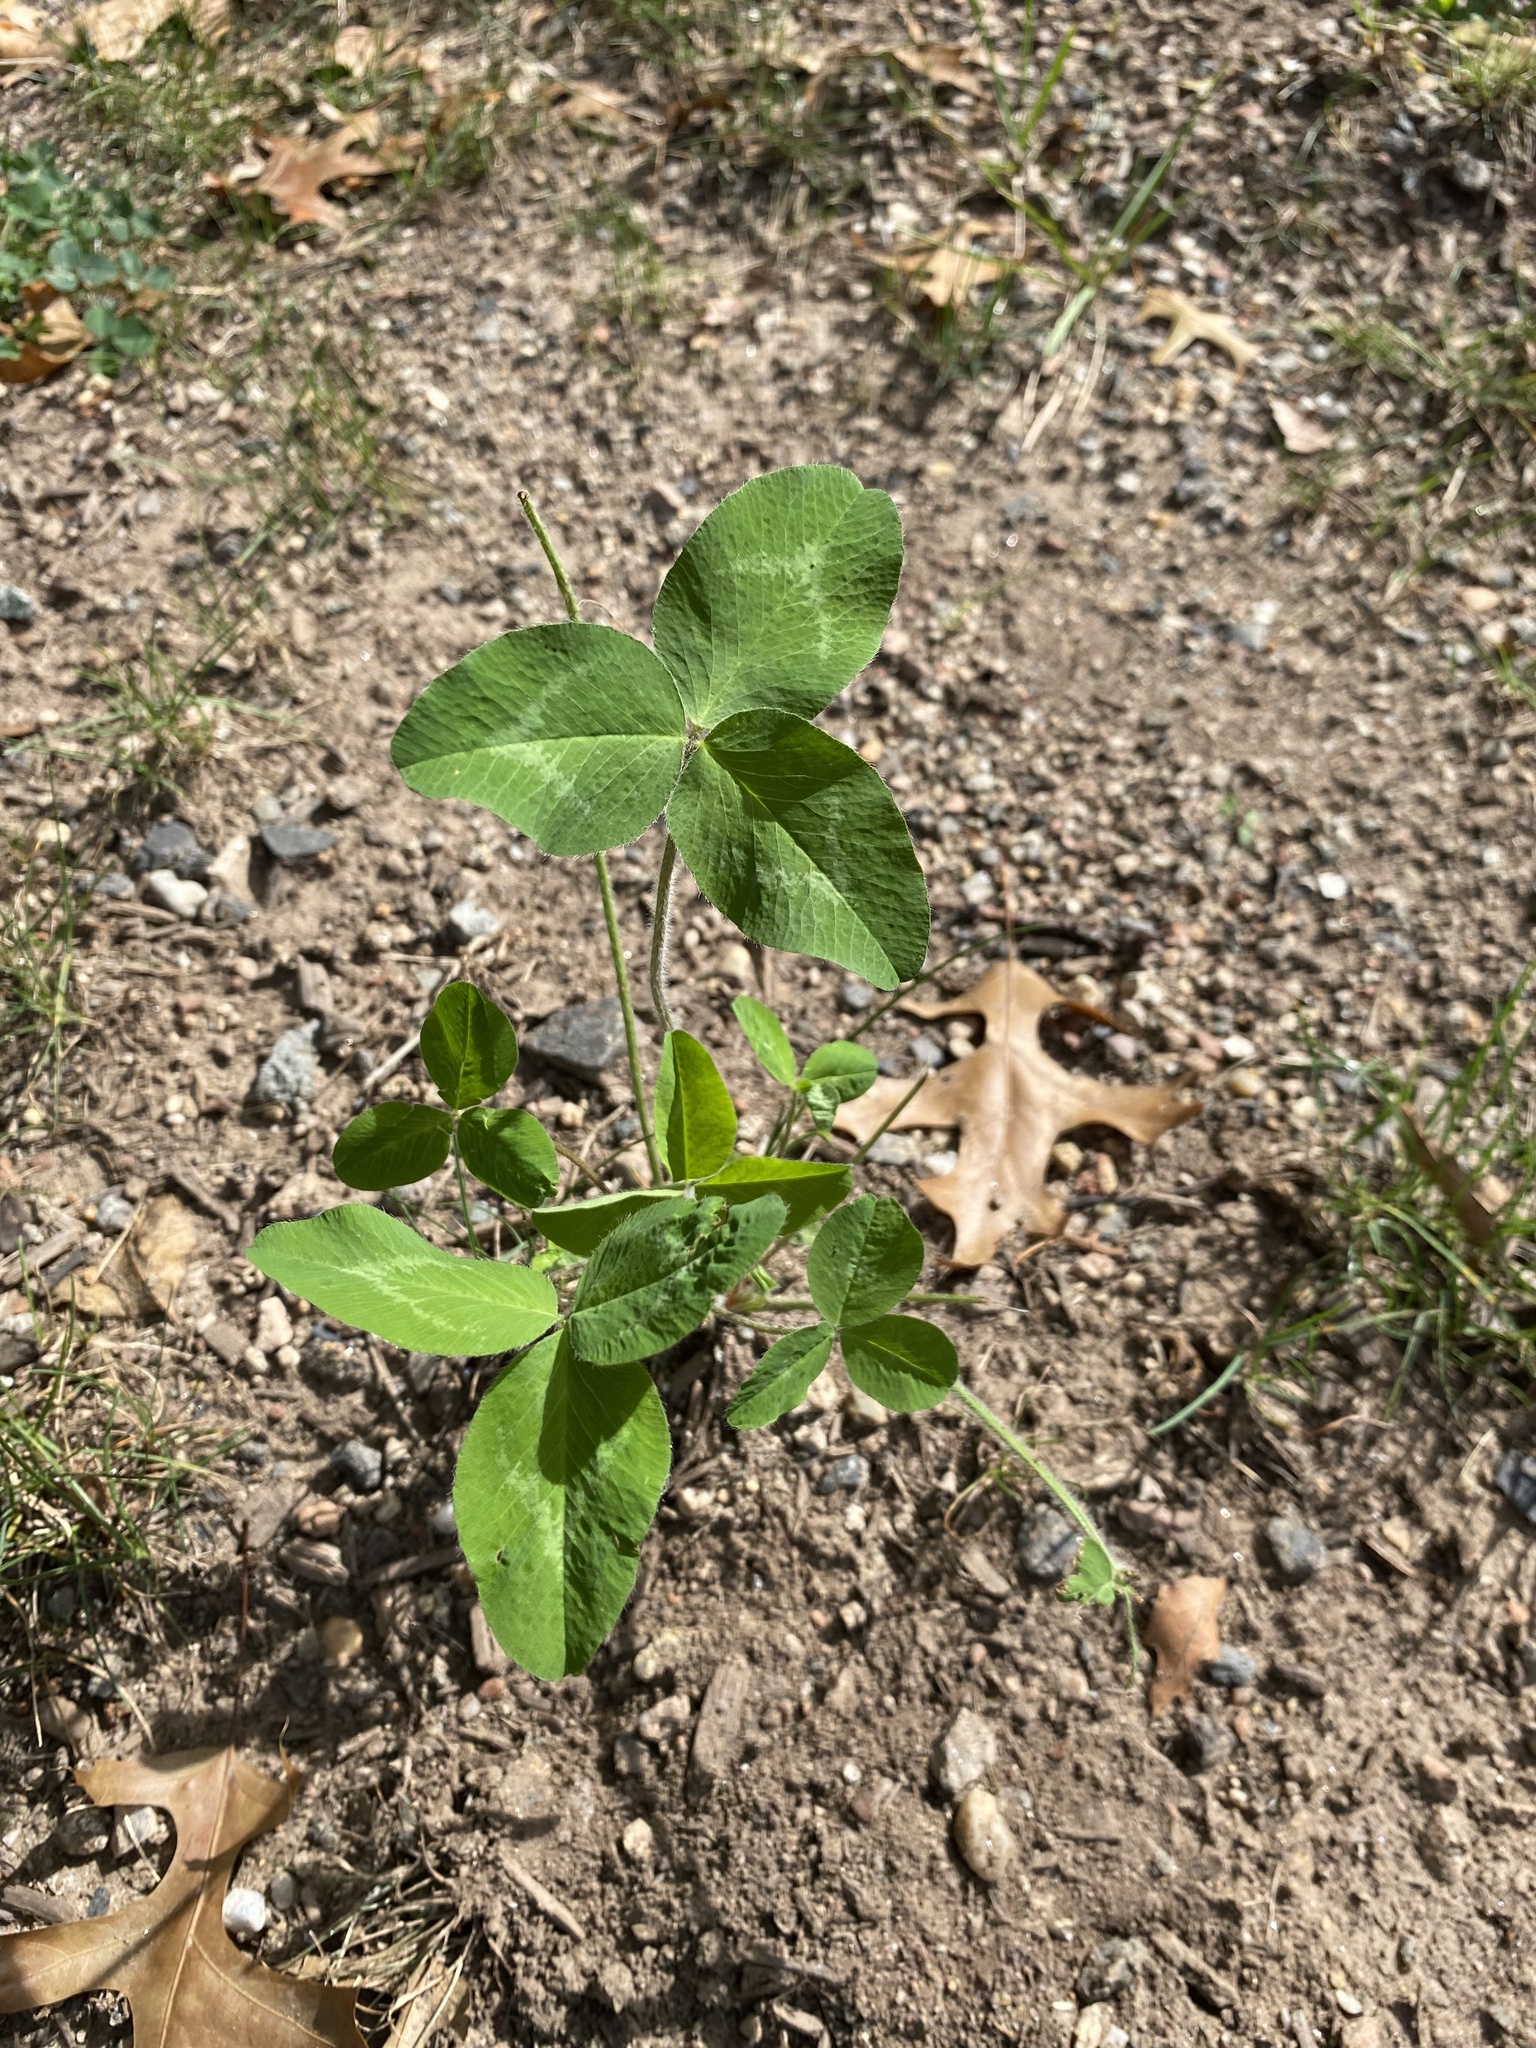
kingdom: Plantae
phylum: Tracheophyta
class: Magnoliopsida
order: Fabales
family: Fabaceae
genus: Trifolium
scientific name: Trifolium pratense
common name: Red clover
